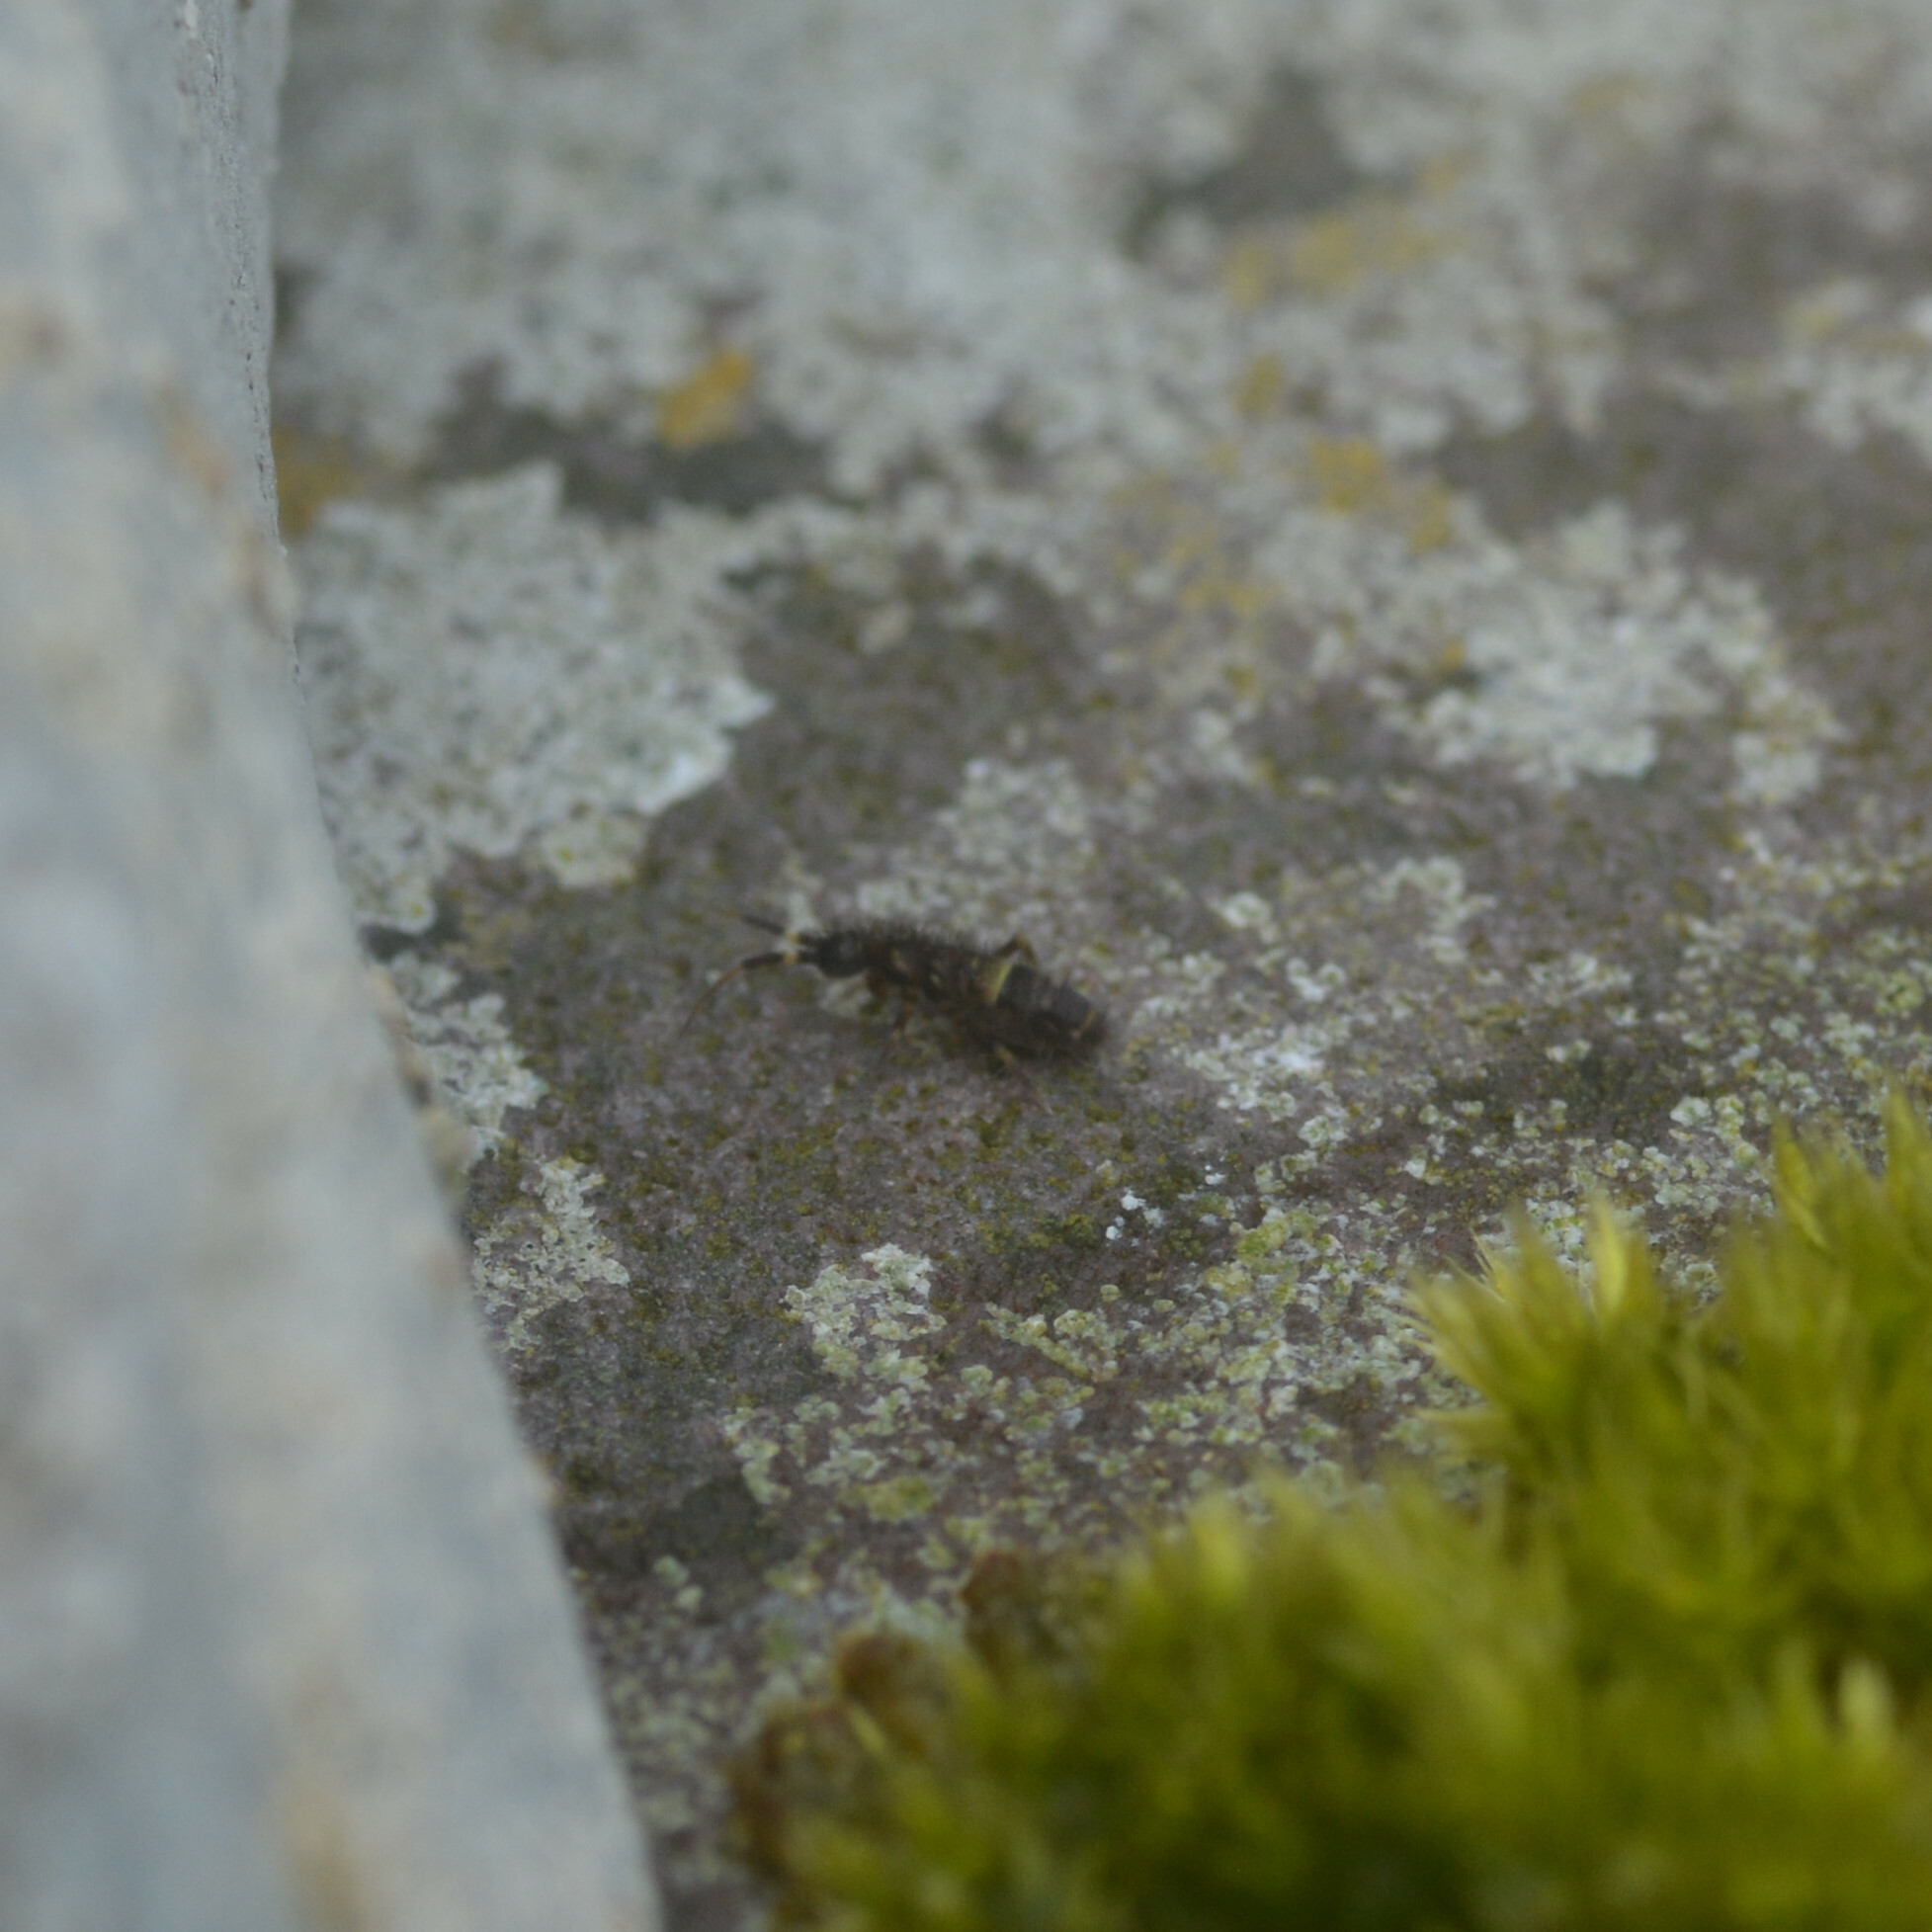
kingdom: Animalia
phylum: Arthropoda
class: Collembola
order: Entomobryomorpha
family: Orchesellidae
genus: Orchesella
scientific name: Orchesella cincta
